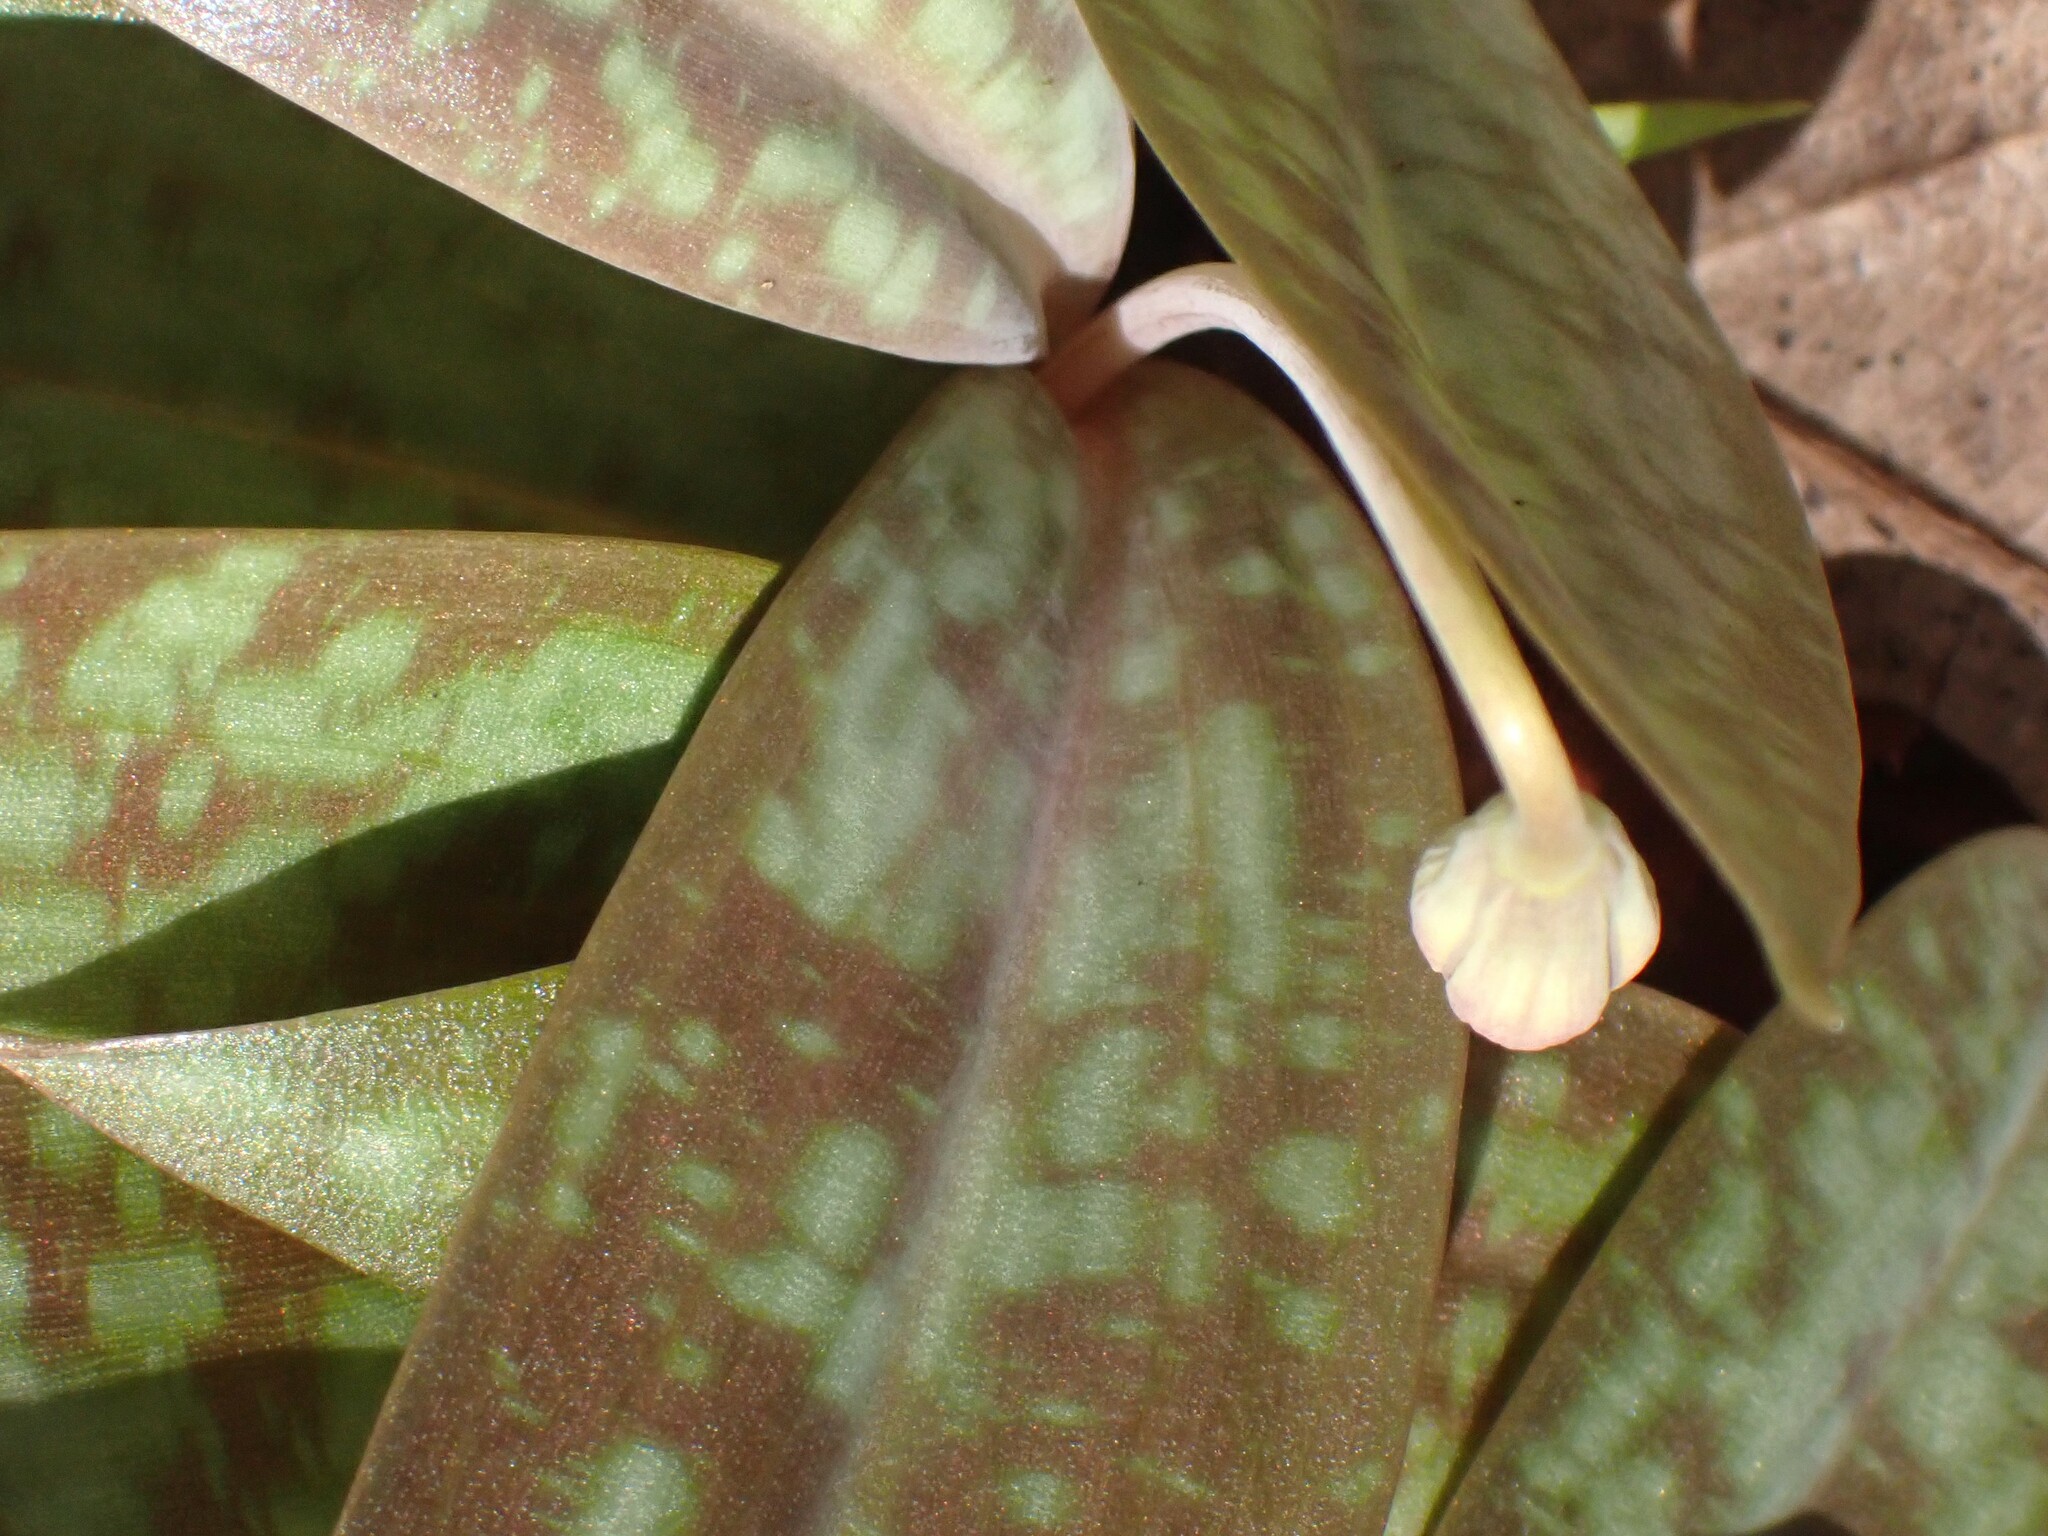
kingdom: Plantae
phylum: Tracheophyta
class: Liliopsida
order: Liliales
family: Liliaceae
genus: Erythronium
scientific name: Erythronium umbilicatum
